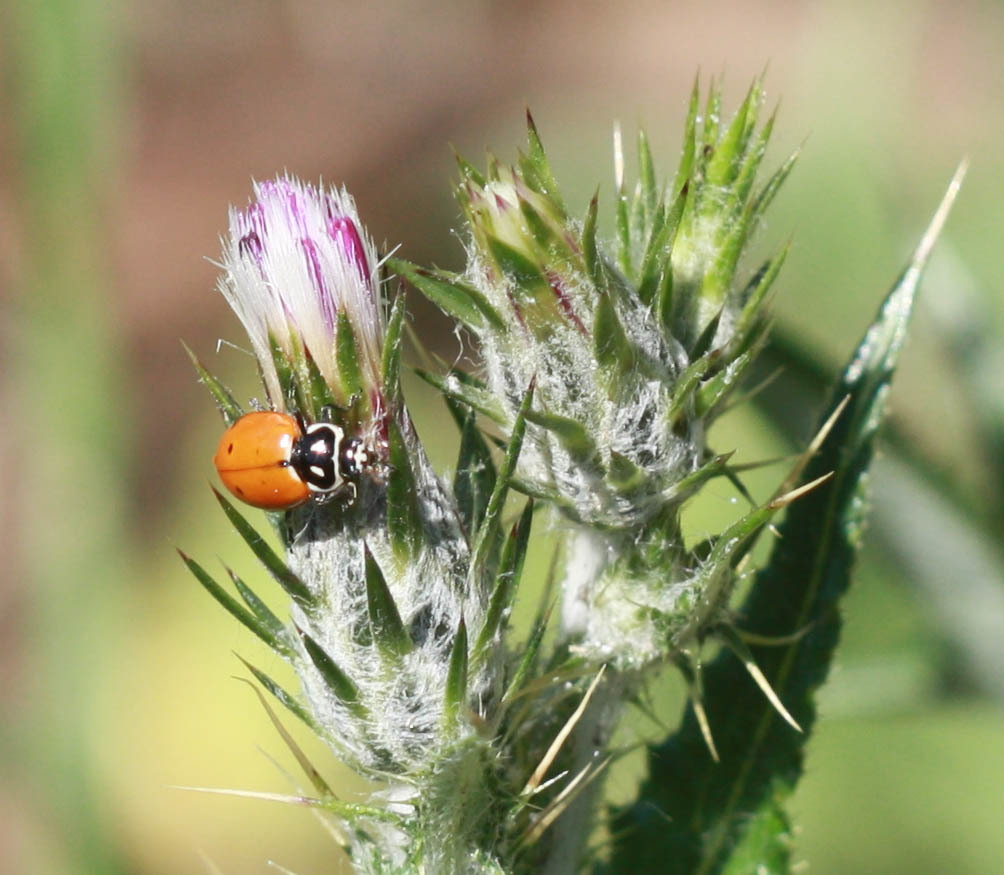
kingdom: Animalia
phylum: Arthropoda
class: Insecta
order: Coleoptera
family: Coccinellidae
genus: Hippodamia
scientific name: Hippodamia convergens
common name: Convergent lady beetle
